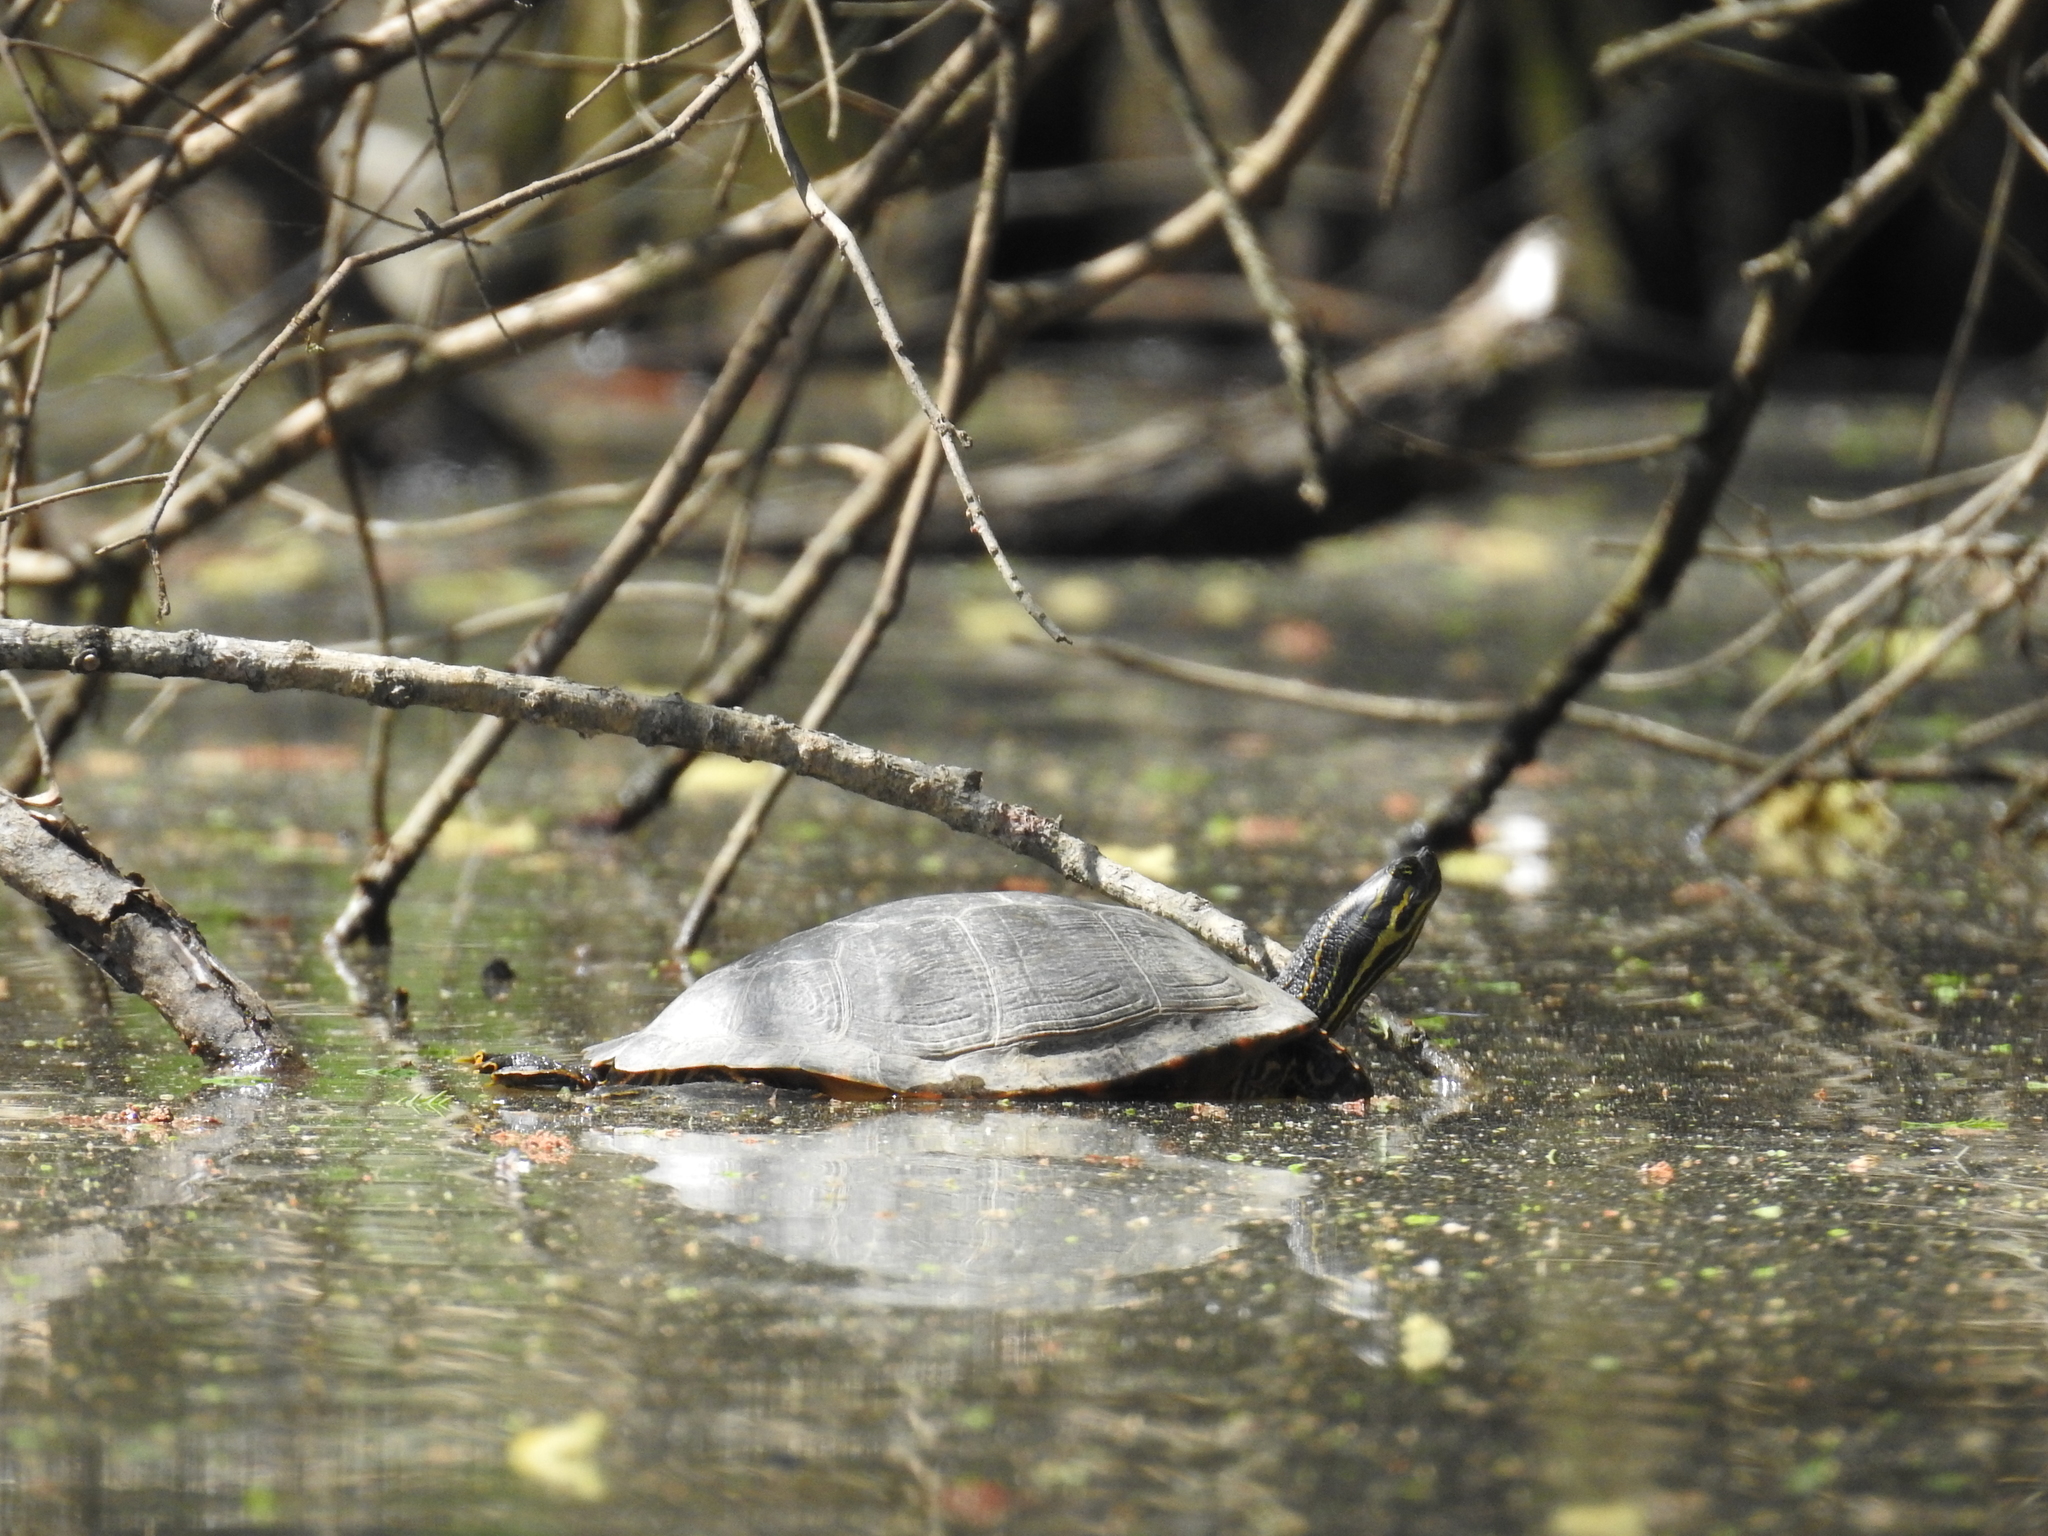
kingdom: Animalia
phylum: Chordata
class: Testudines
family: Emydidae
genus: Pseudemys
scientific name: Pseudemys concinna
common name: Eastern river cooter
